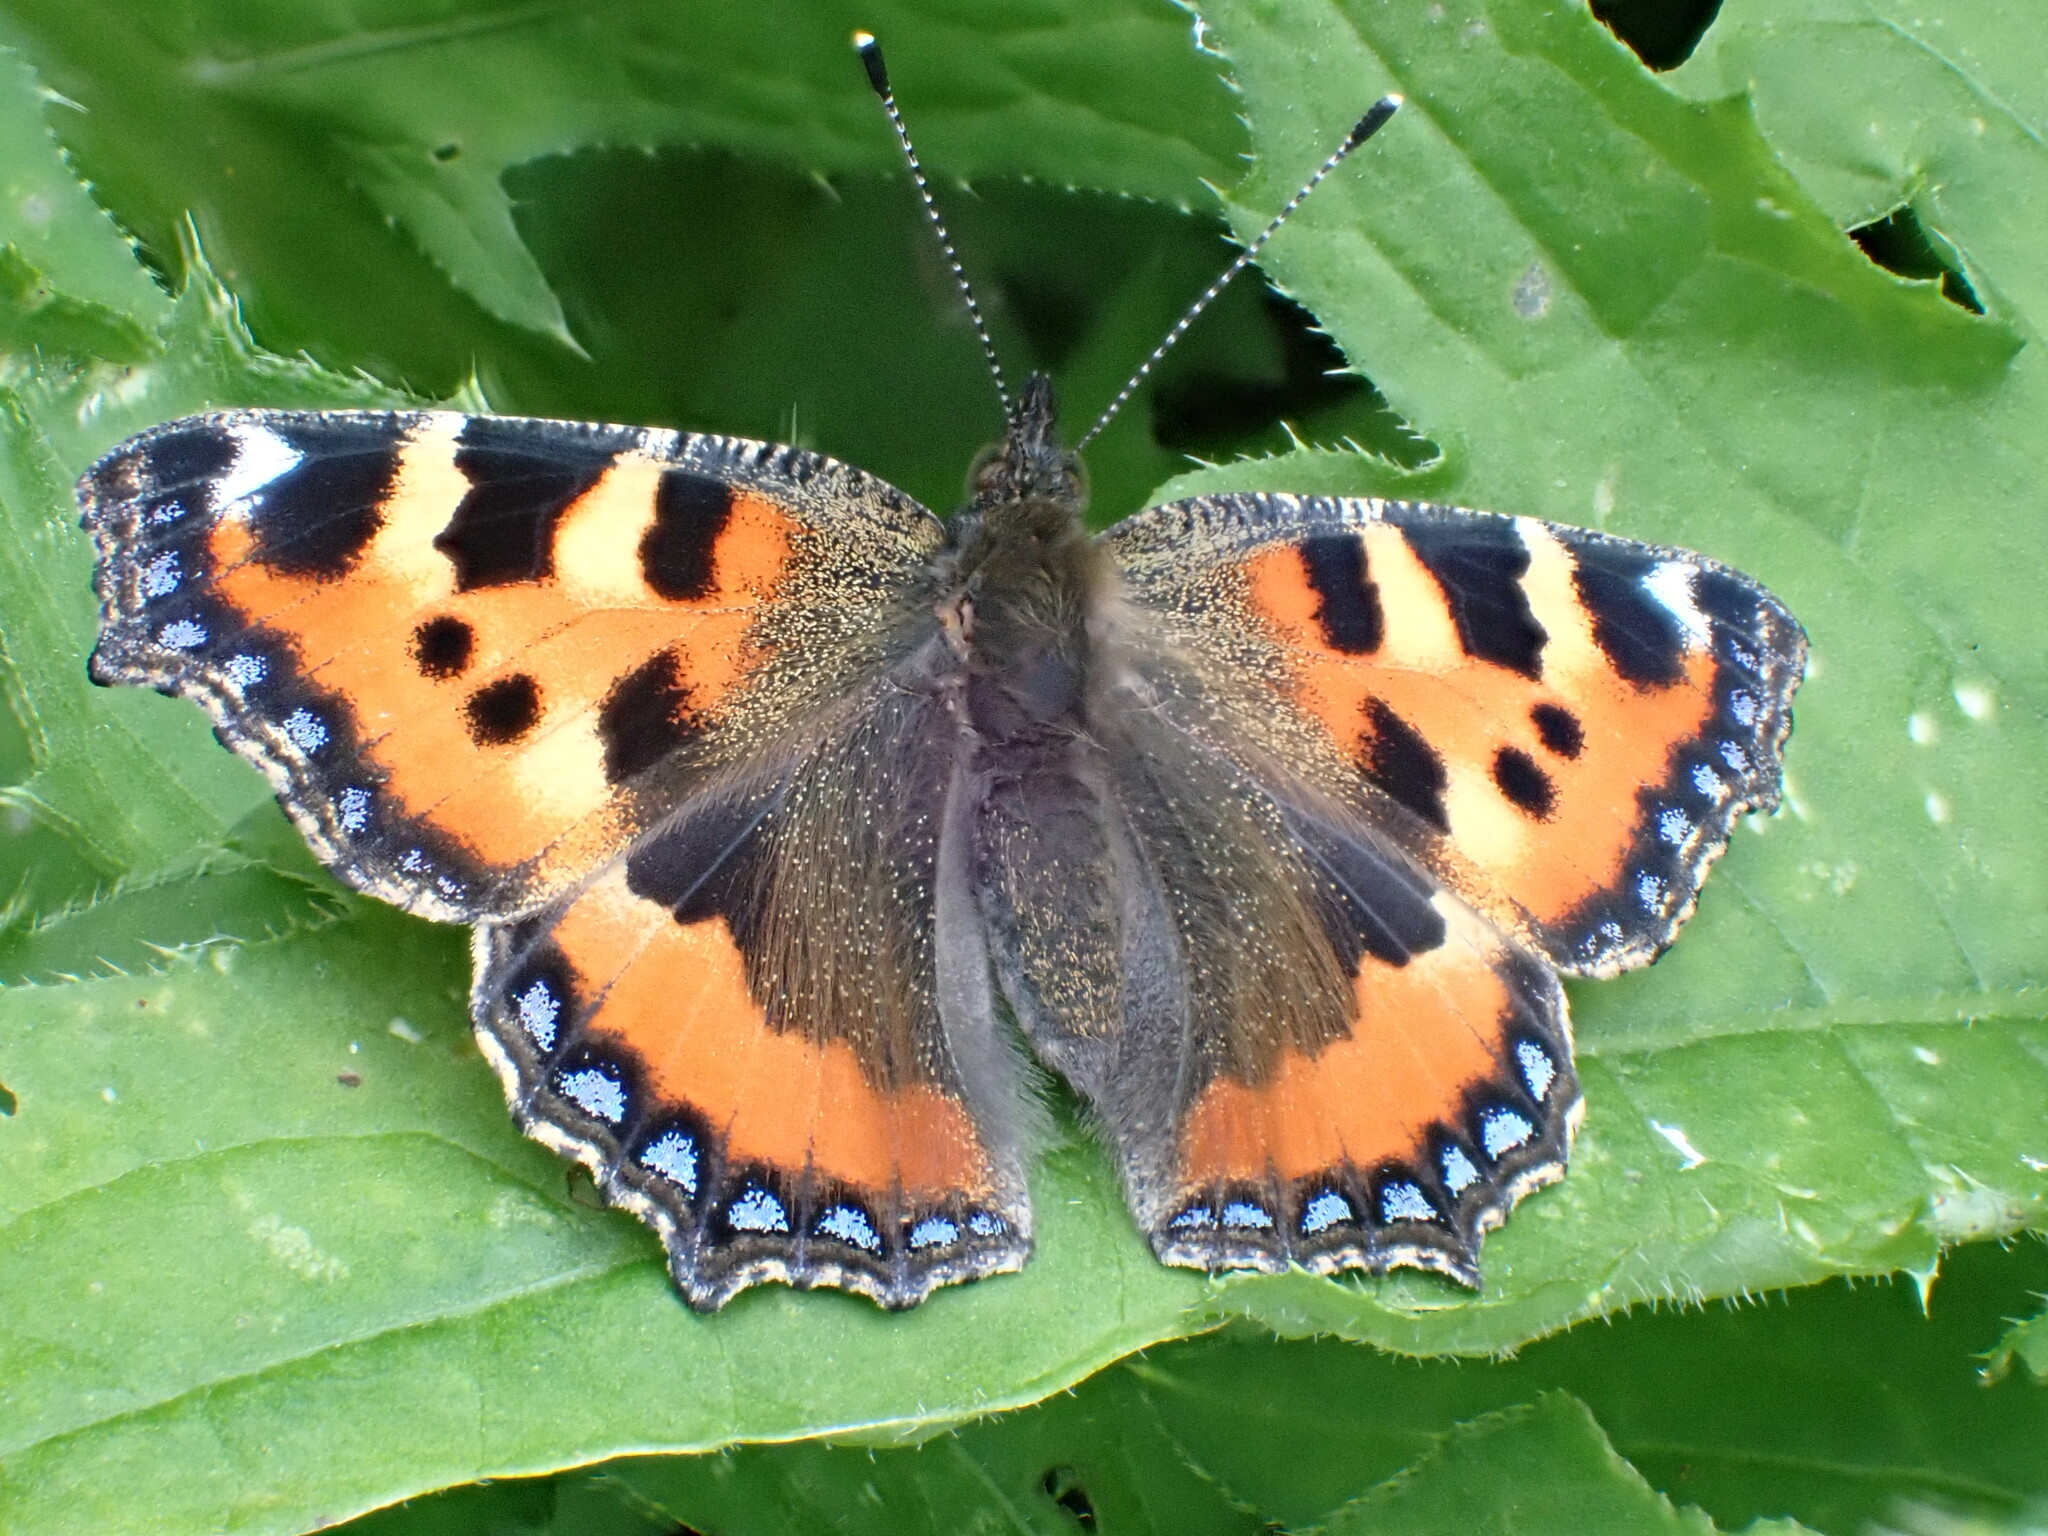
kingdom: Animalia
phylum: Arthropoda
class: Insecta
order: Lepidoptera
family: Nymphalidae
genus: Aglais
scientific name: Aglais urticae
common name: Small tortoiseshell
